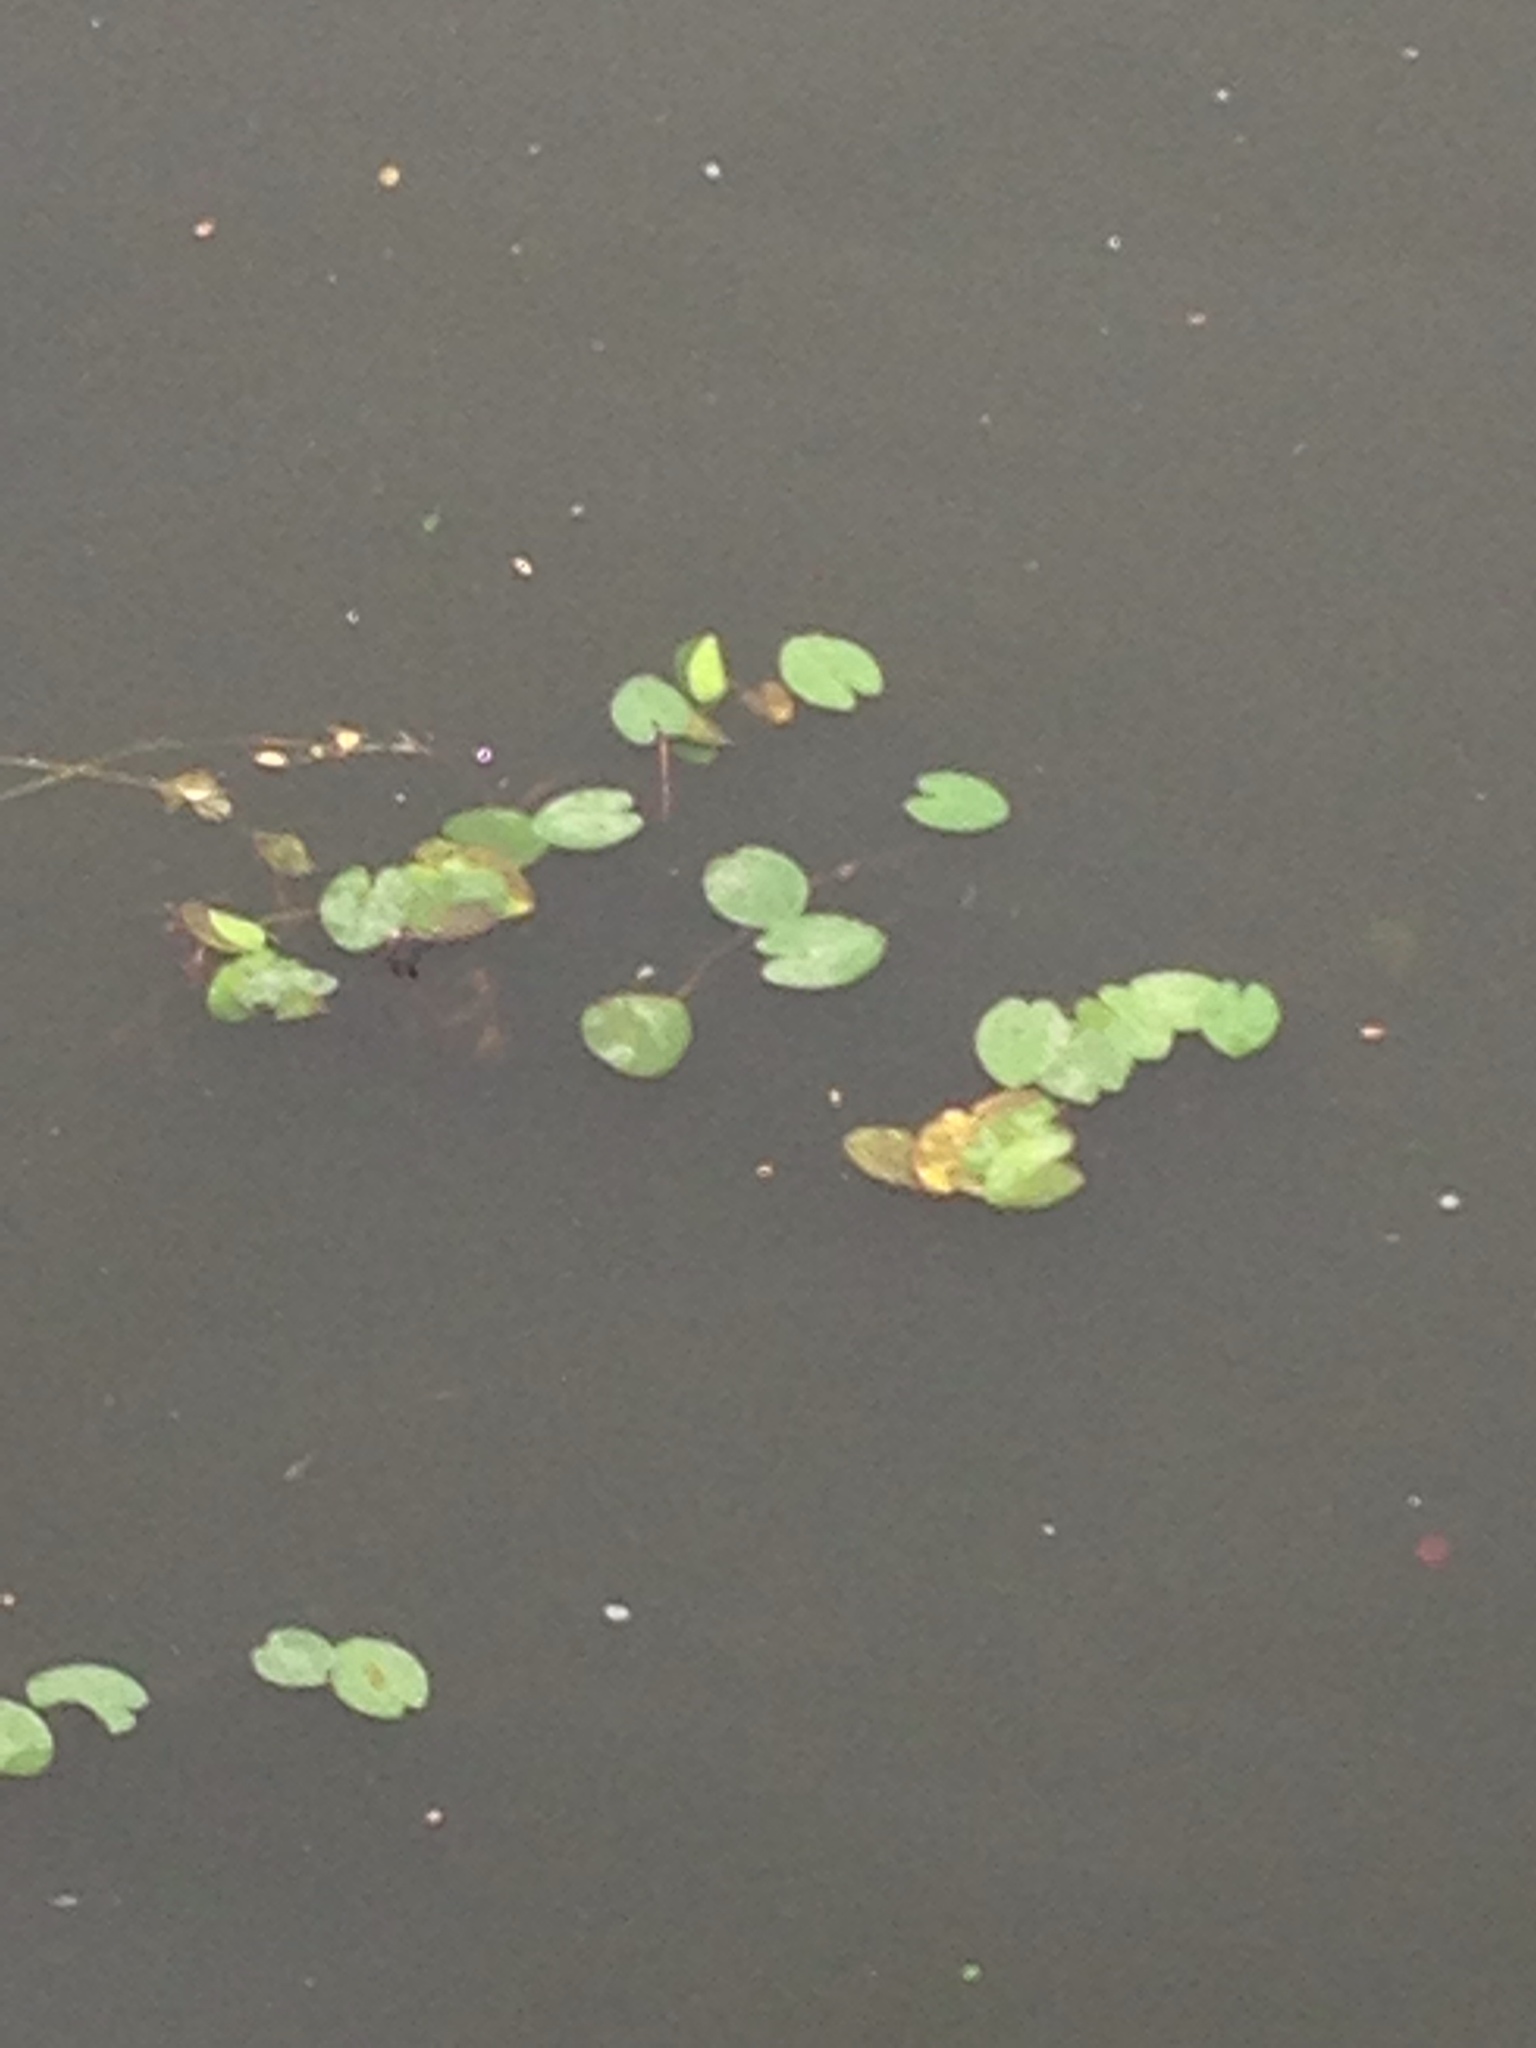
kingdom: Plantae
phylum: Tracheophyta
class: Magnoliopsida
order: Nymphaeales
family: Nymphaeaceae
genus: Nymphaea
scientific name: Nymphaea alba
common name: White water-lily
